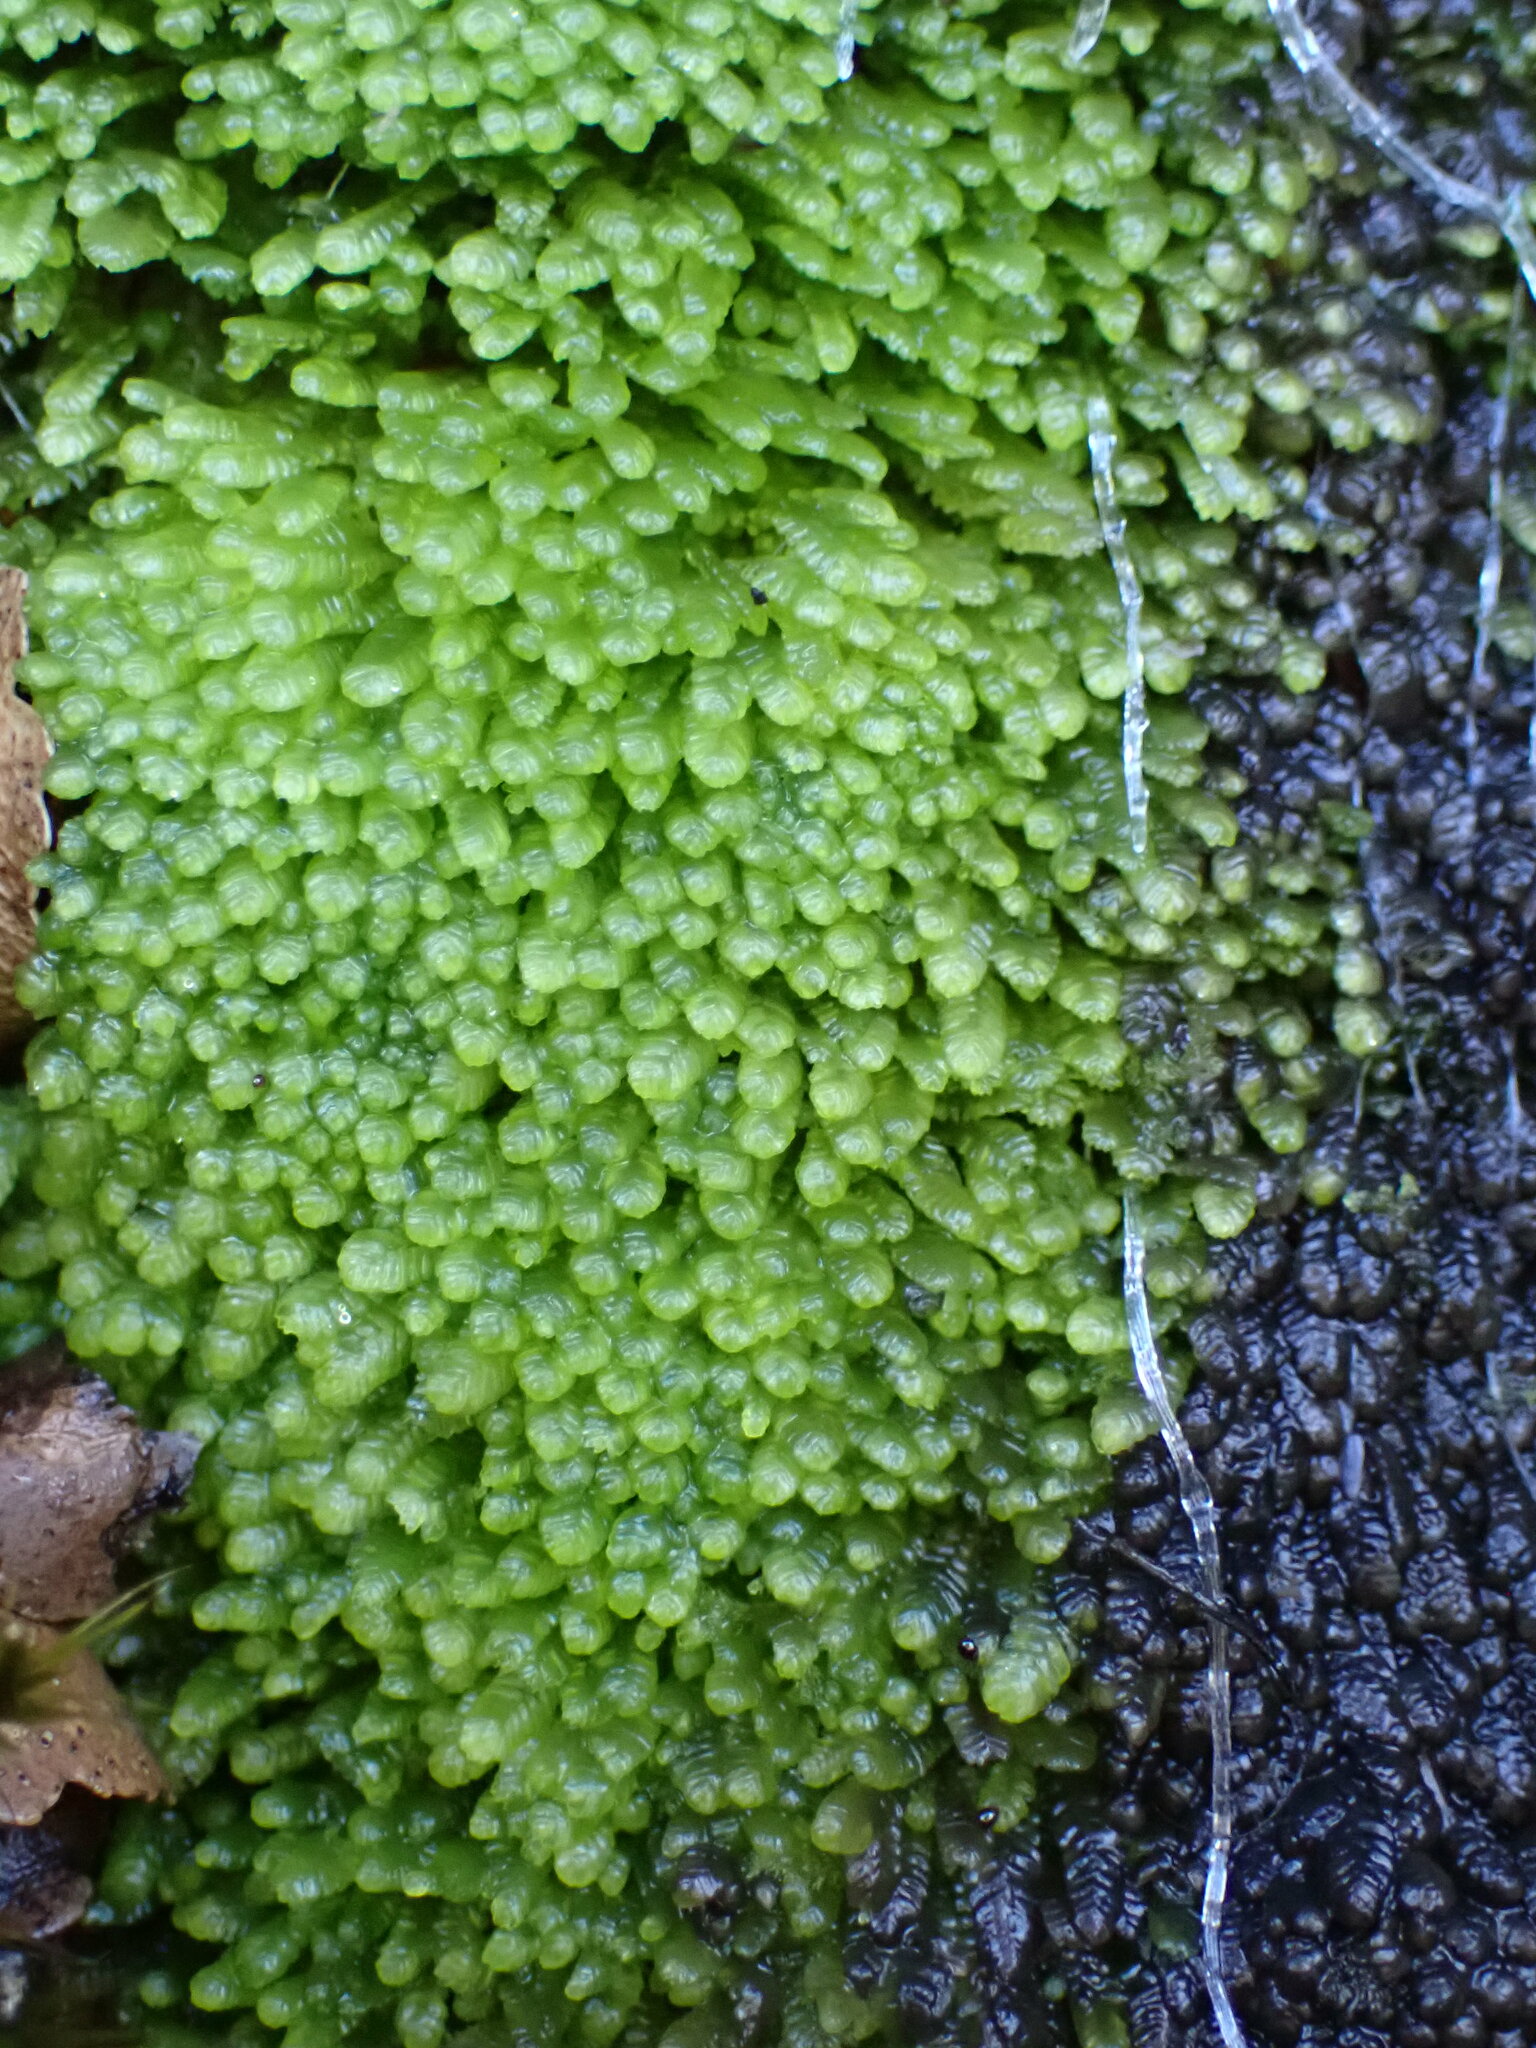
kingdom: Plantae
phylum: Marchantiophyta
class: Jungermanniopsida
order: Jungermanniales
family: Lepidoziaceae
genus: Lembidium
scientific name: Lembidium nutans
